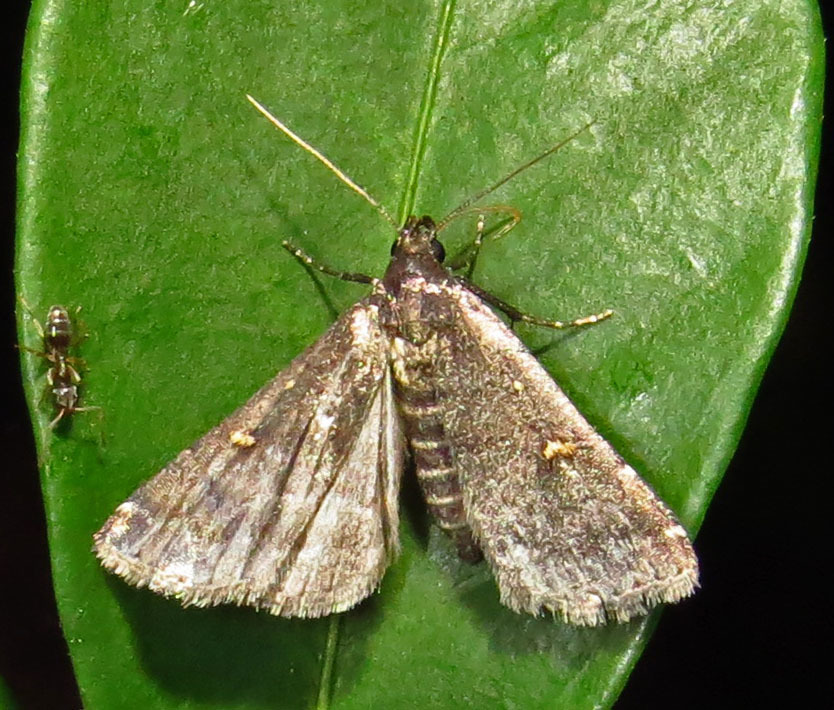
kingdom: Animalia
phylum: Arthropoda
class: Insecta
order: Lepidoptera
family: Erebidae
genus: Tetanolita
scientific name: Tetanolita mynesalis
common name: Smoky tetanolita moth
